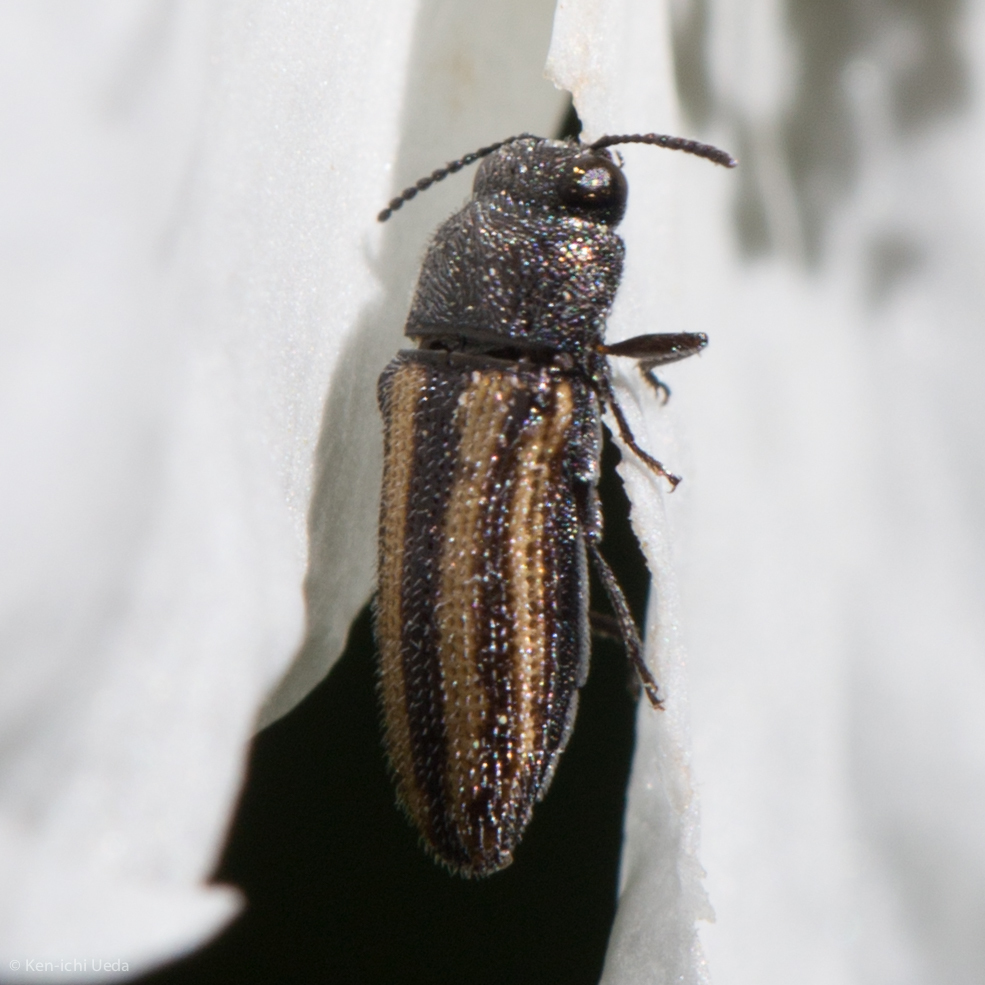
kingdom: Animalia
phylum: Arthropoda
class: Insecta
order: Coleoptera
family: Buprestidae
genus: Acmaeodera
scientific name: Acmaeodera quadrivittatoides
